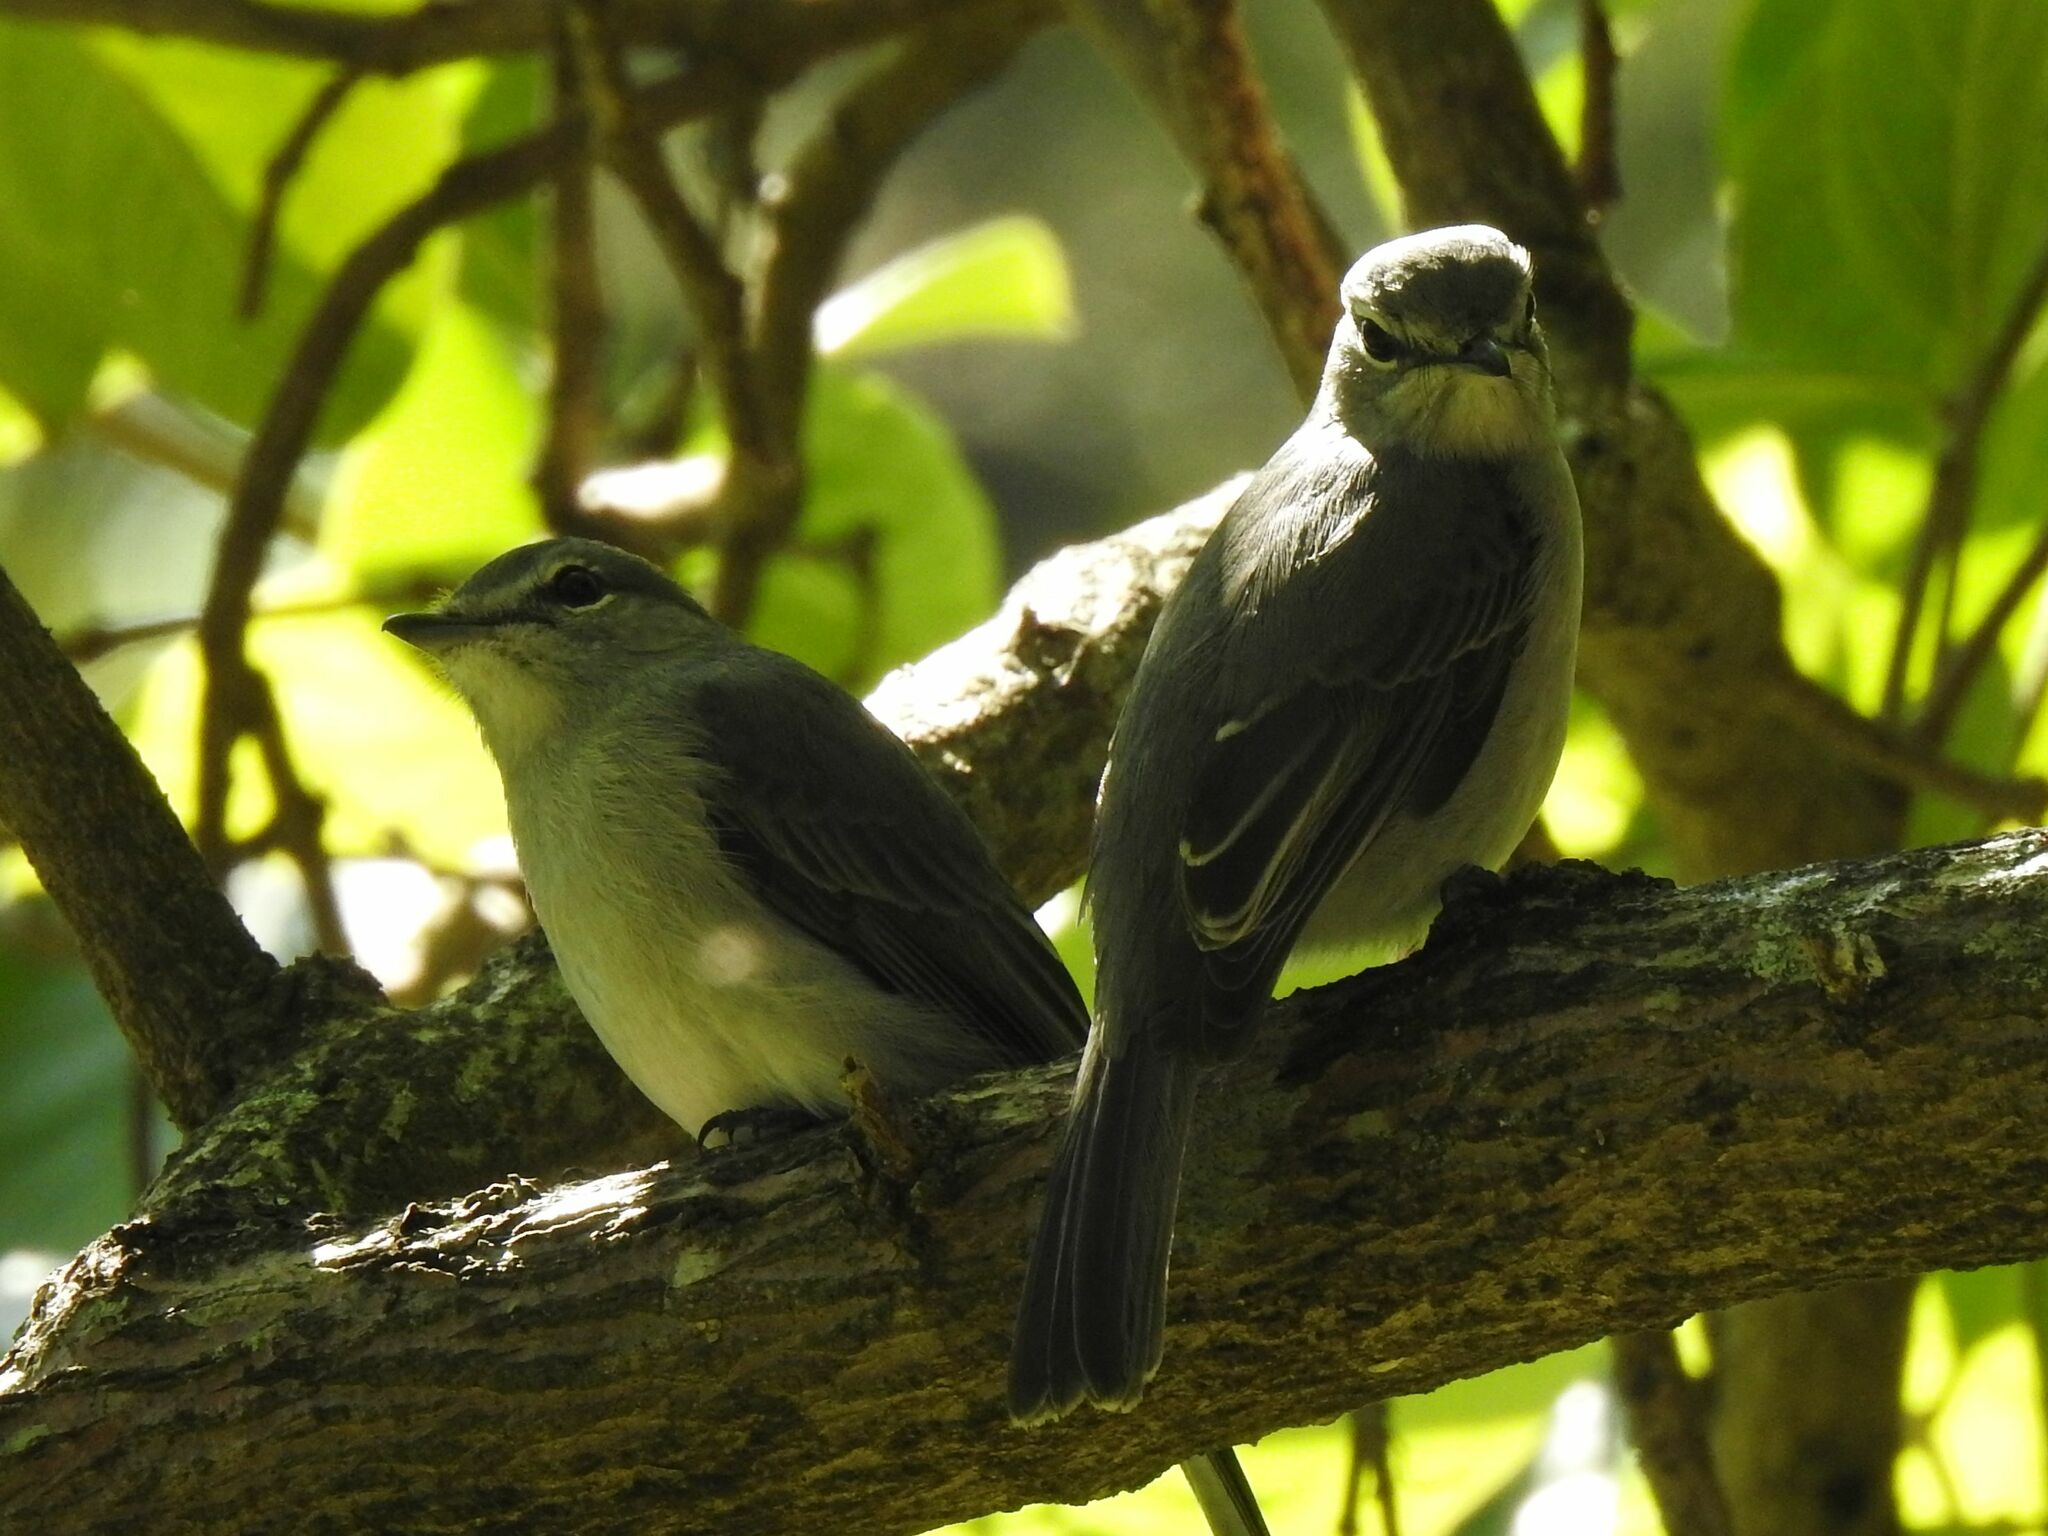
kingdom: Animalia
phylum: Chordata
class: Aves
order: Passeriformes
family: Muscicapidae
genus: Muscicapa
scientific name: Muscicapa caerulescens
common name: Ashy flycatcher
